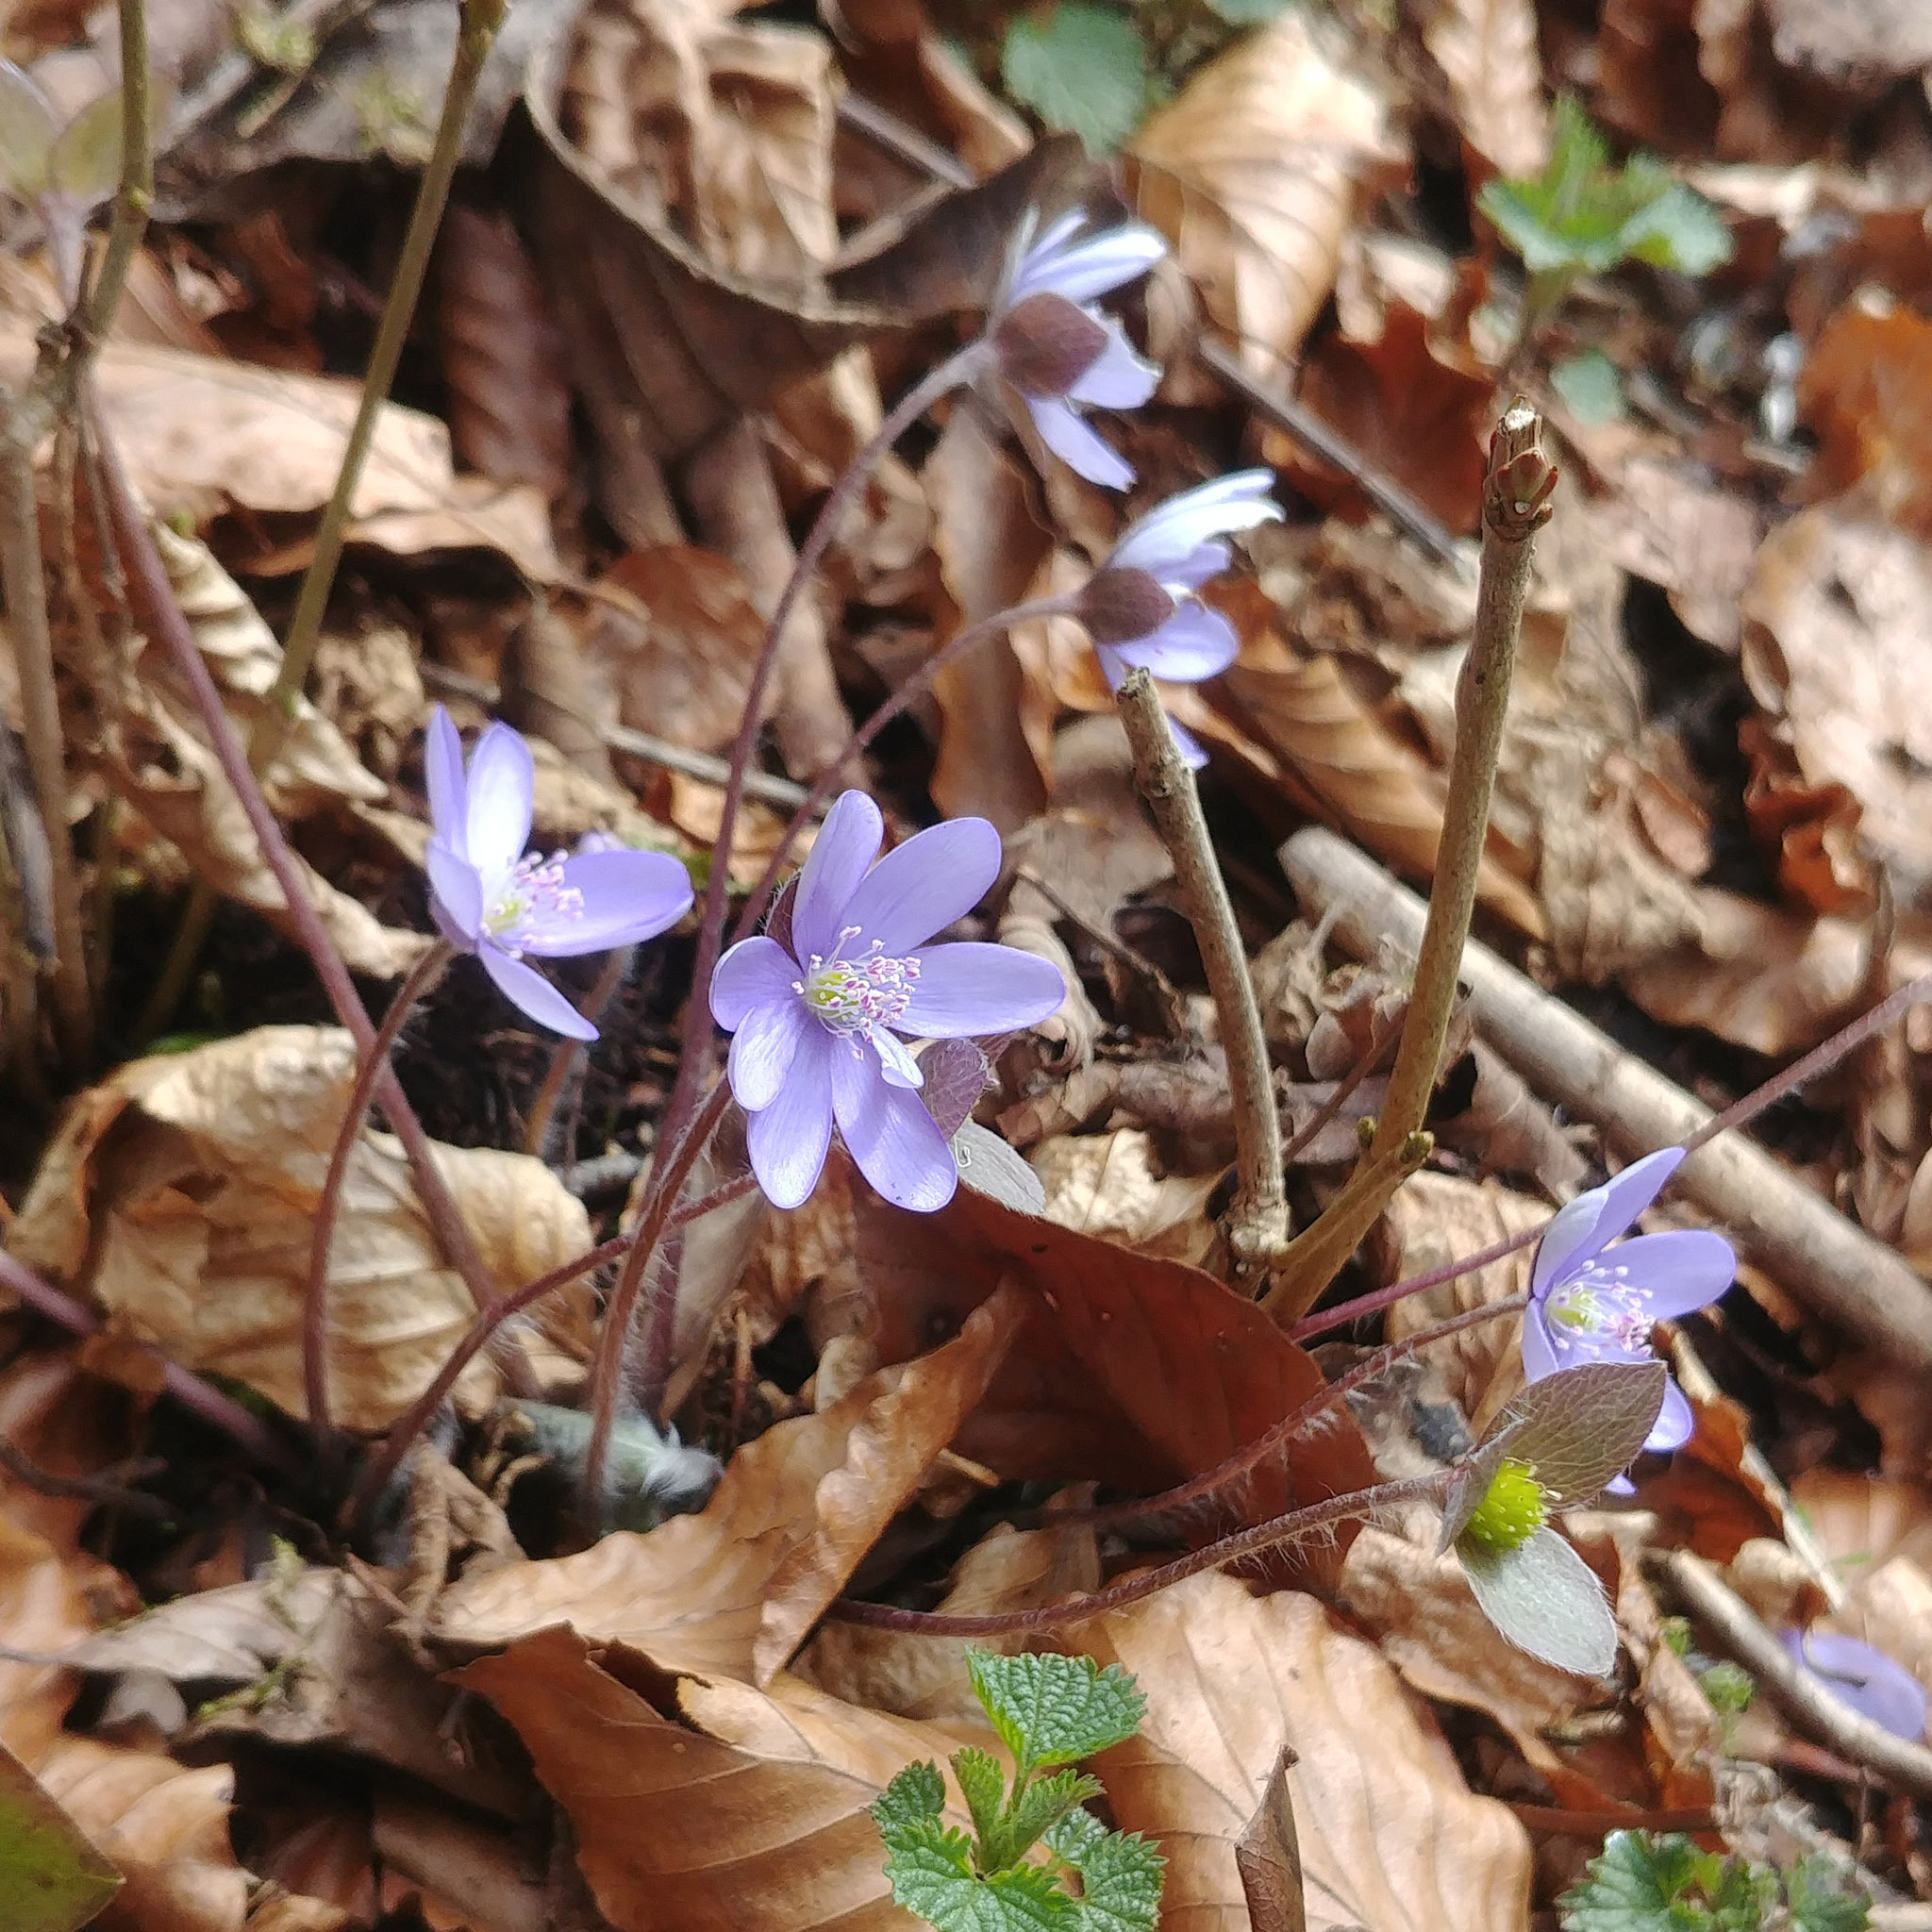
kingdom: Plantae
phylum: Tracheophyta
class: Magnoliopsida
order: Ranunculales
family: Ranunculaceae
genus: Hepatica
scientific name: Hepatica nobilis
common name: Liverleaf
